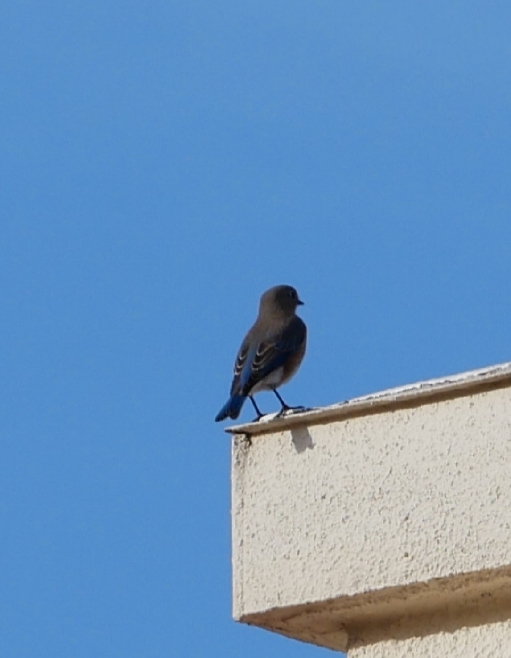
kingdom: Animalia
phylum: Chordata
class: Aves
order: Passeriformes
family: Turdidae
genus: Sialia
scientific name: Sialia sialis
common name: Eastern bluebird
